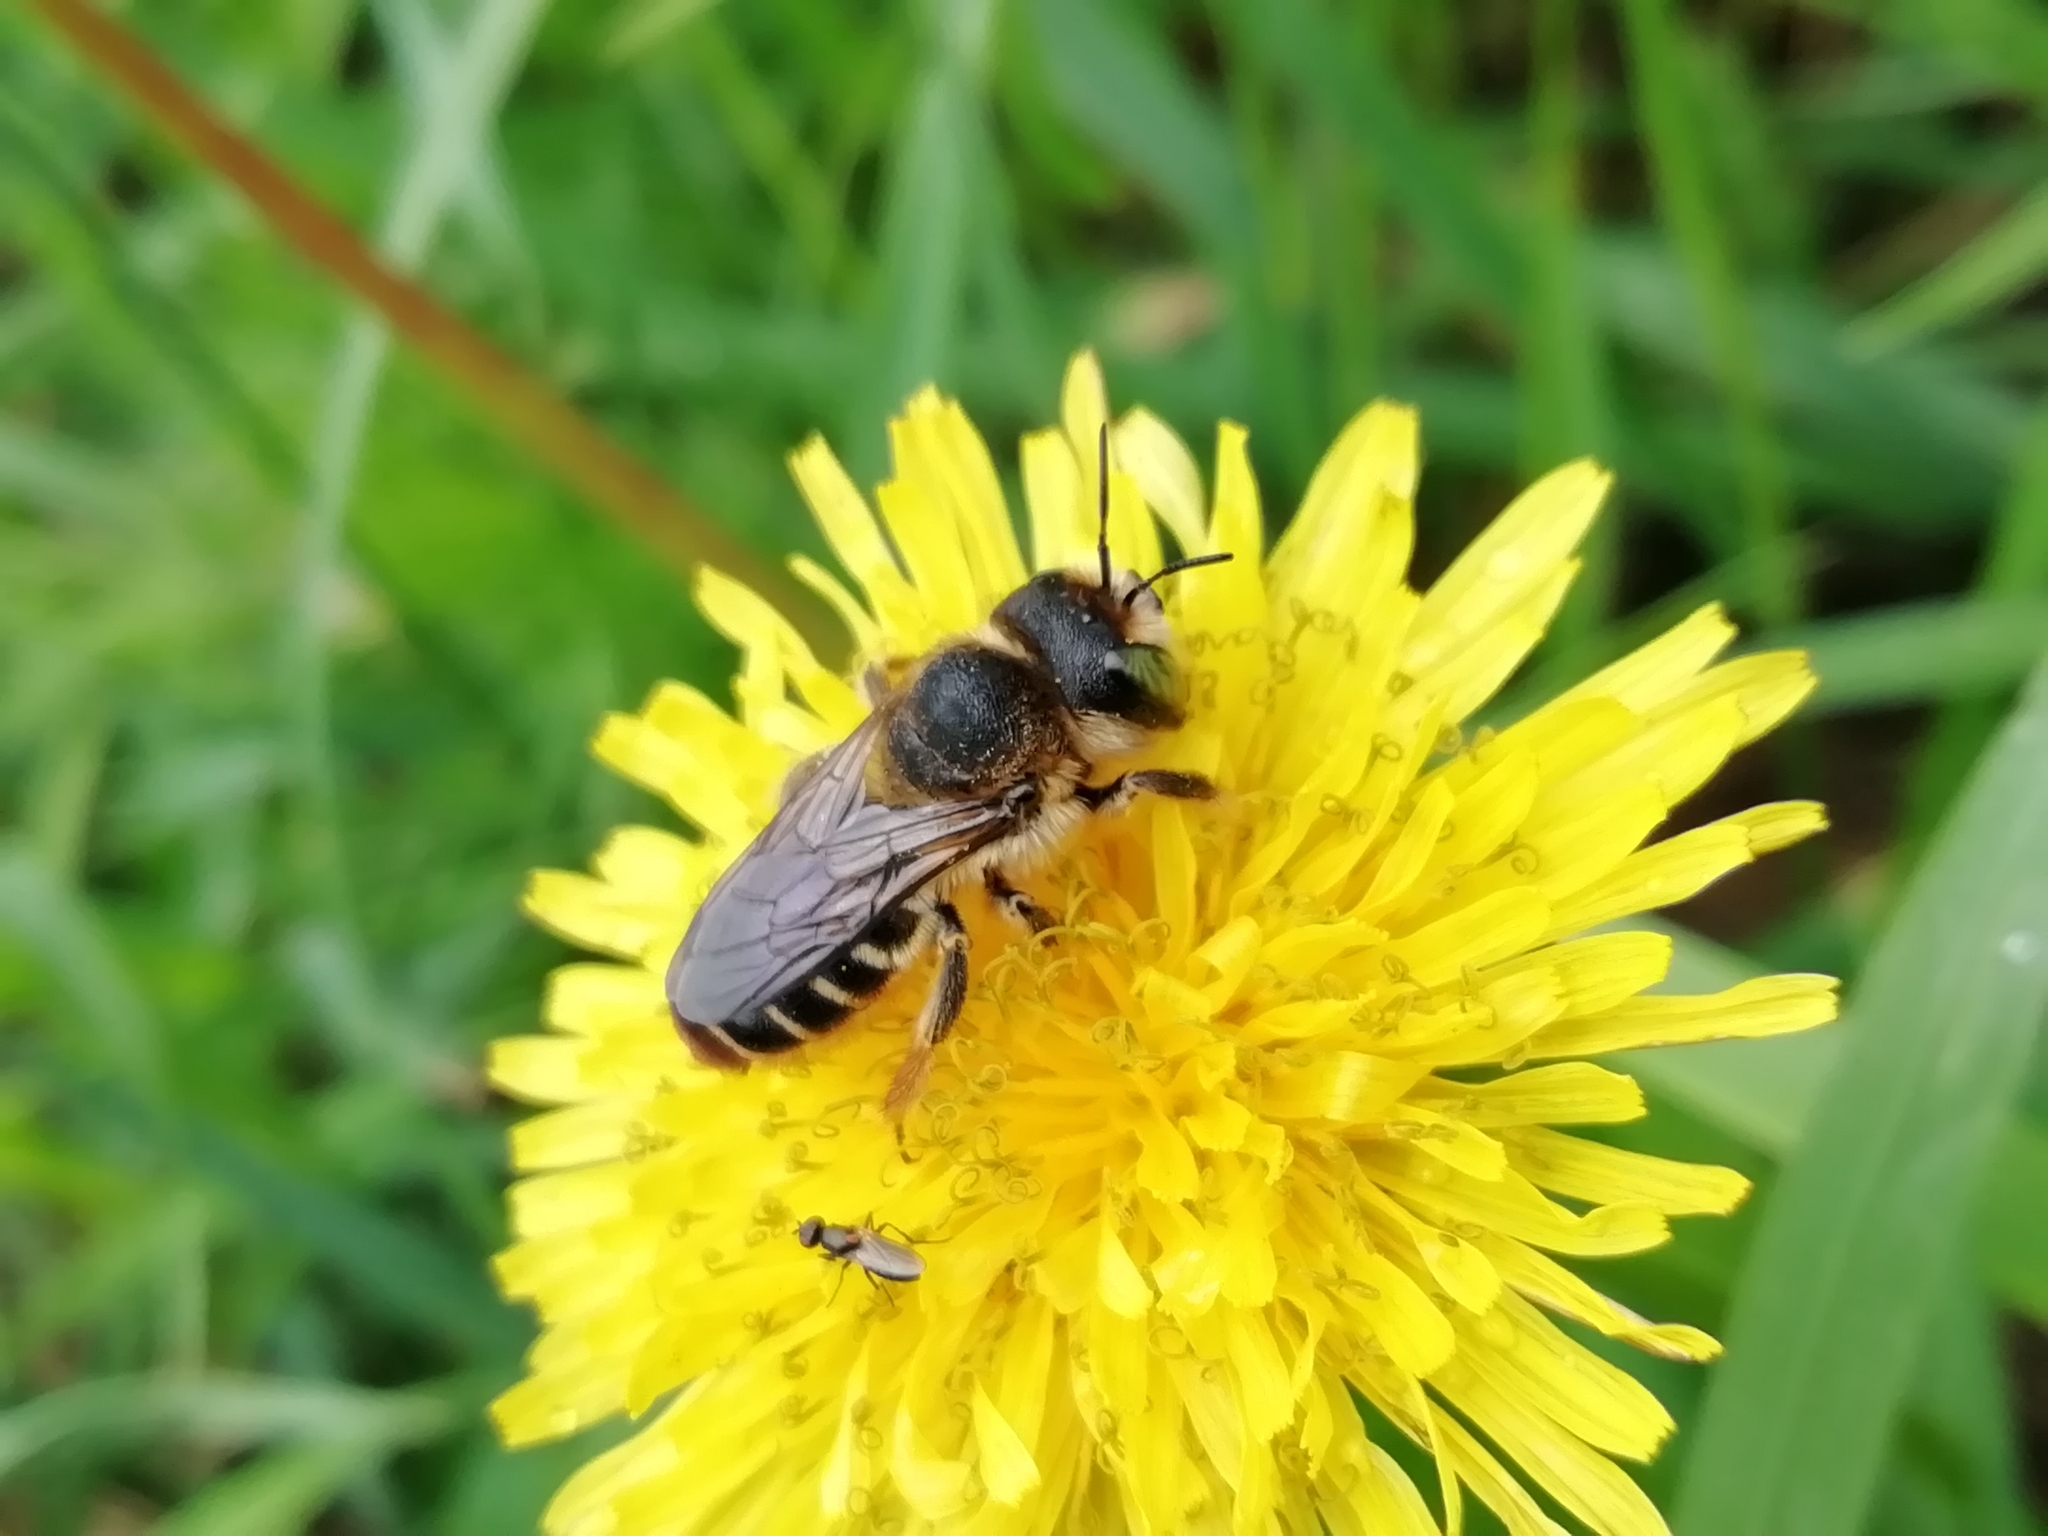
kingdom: Animalia
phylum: Arthropoda
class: Insecta
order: Hymenoptera
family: Megachilidae
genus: Lithurgus
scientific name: Lithurgus cornutus
